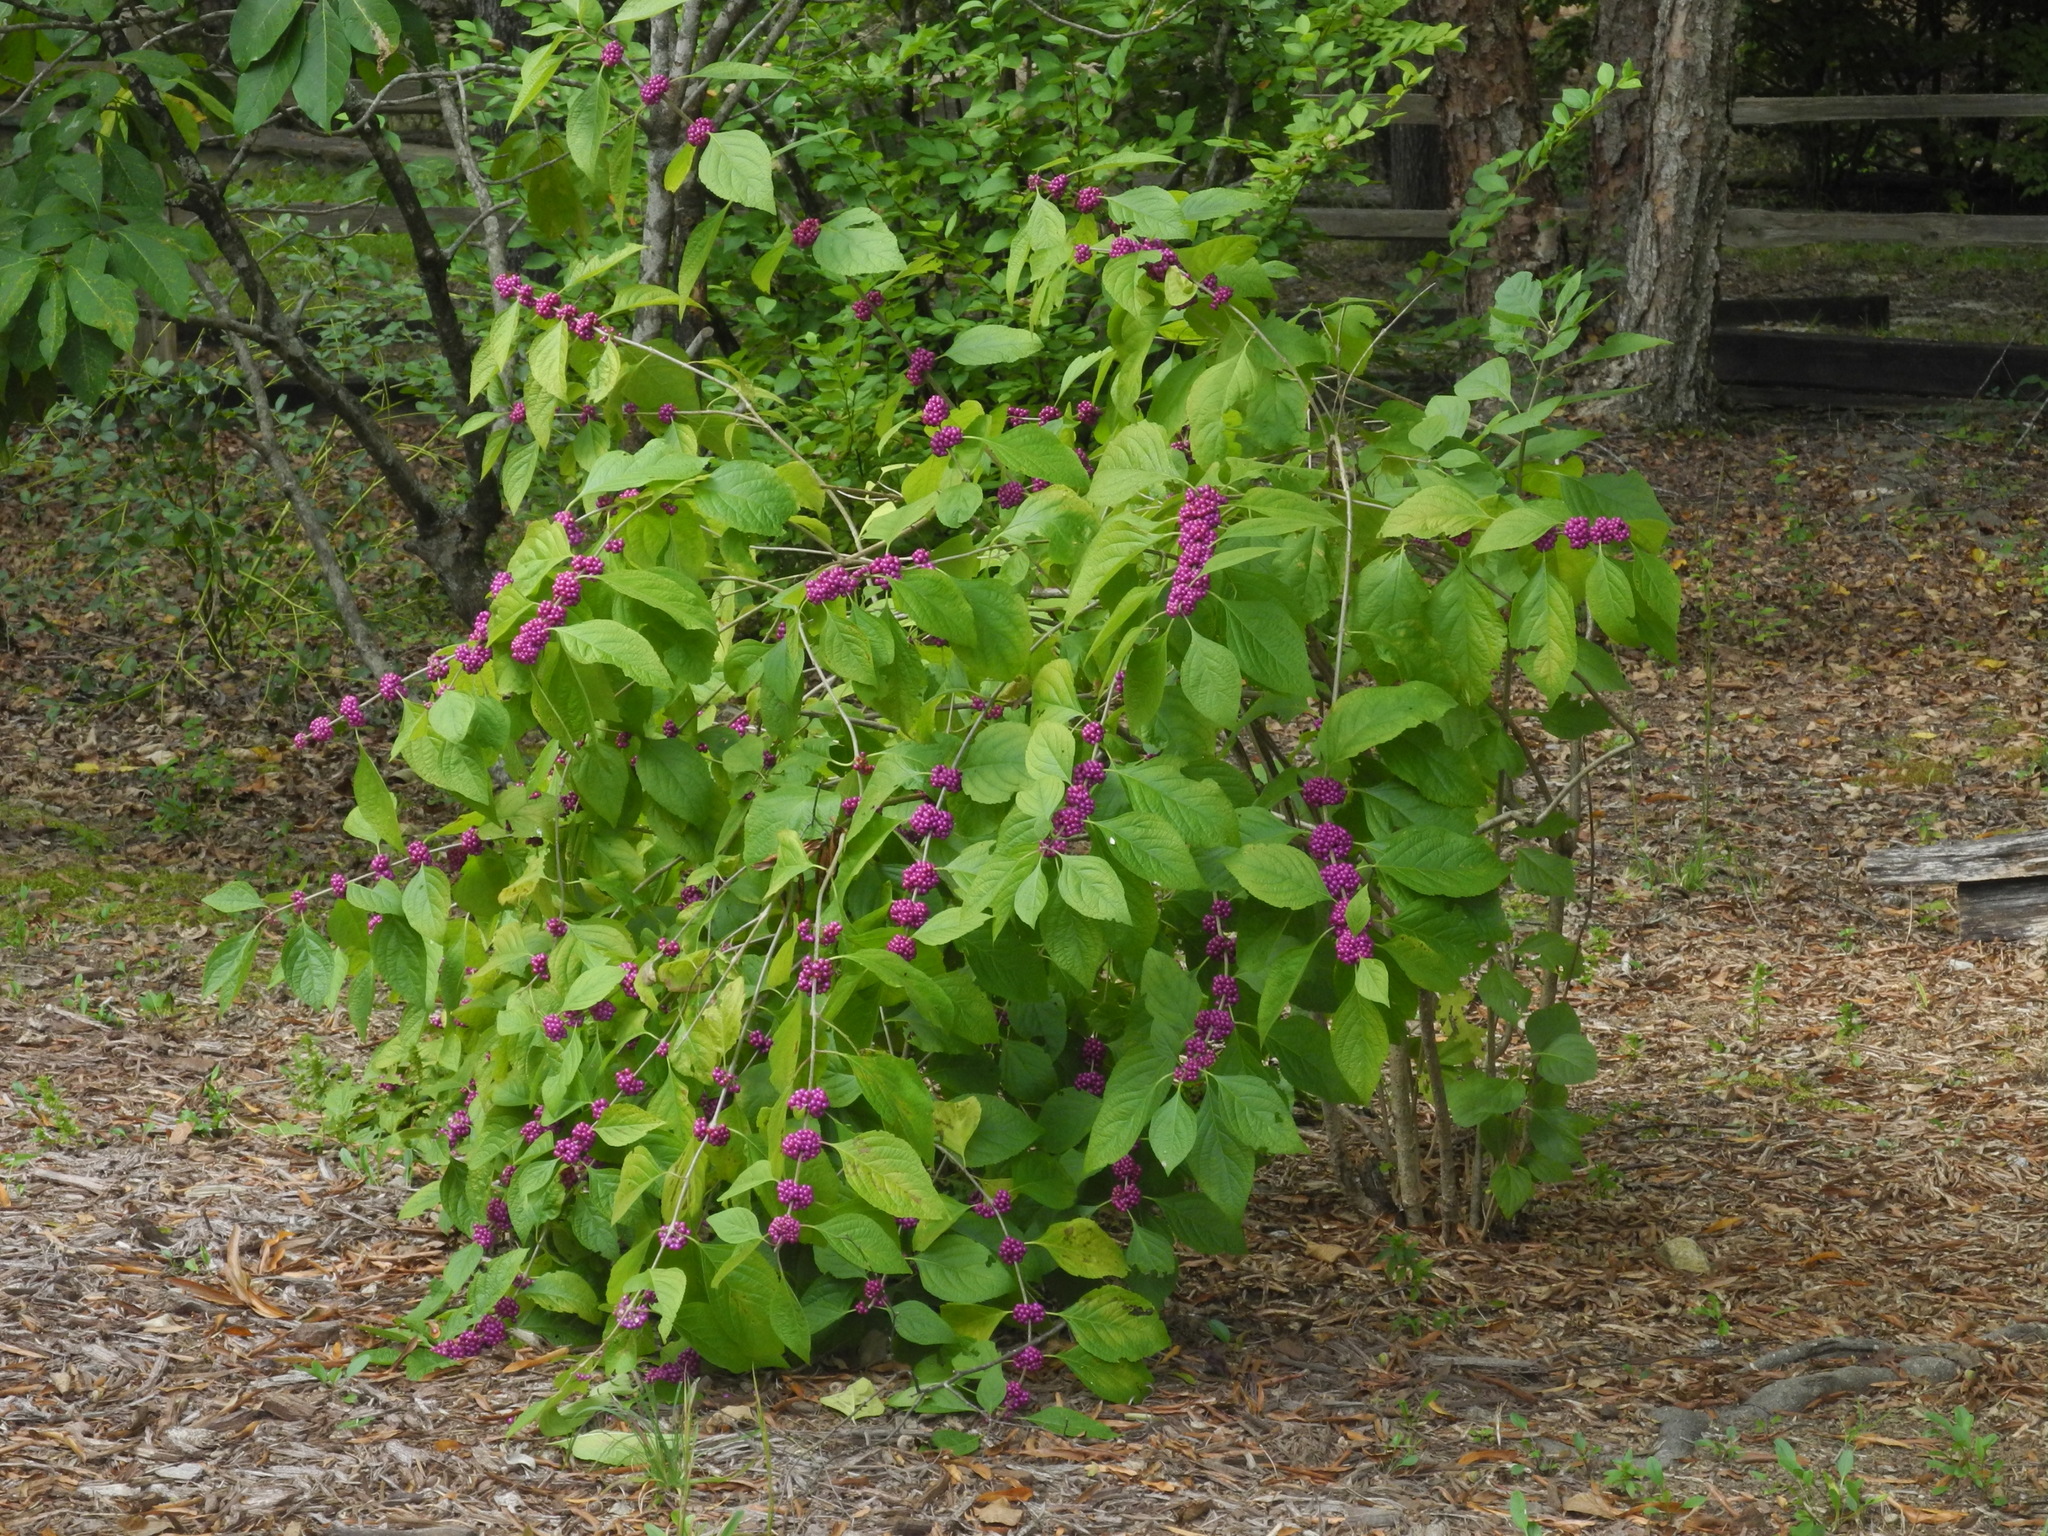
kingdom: Plantae
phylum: Tracheophyta
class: Magnoliopsida
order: Lamiales
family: Lamiaceae
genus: Callicarpa
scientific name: Callicarpa americana
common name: American beautyberry
